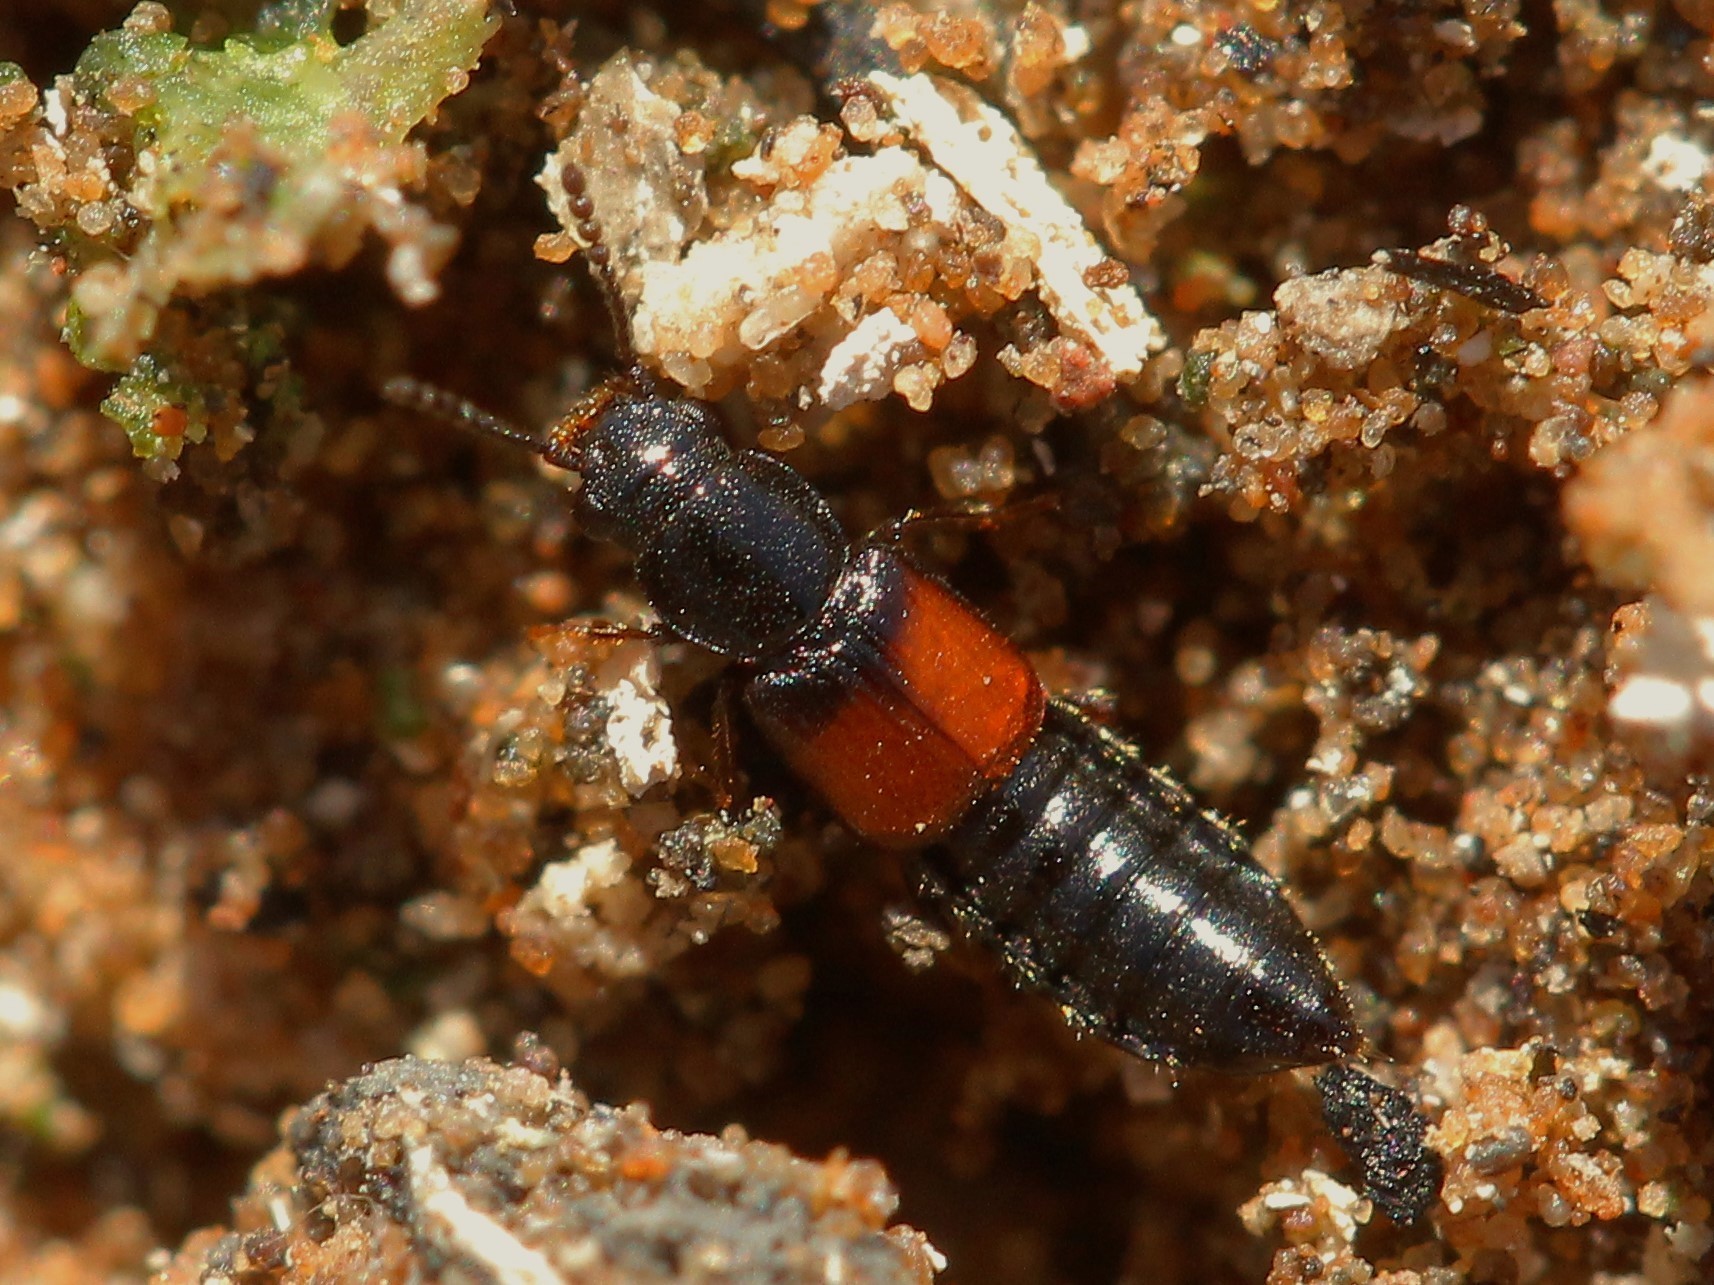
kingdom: Animalia
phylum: Arthropoda
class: Insecta
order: Coleoptera
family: Staphylinidae
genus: Coprophilus
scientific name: Coprophilus dimidiatipennis
